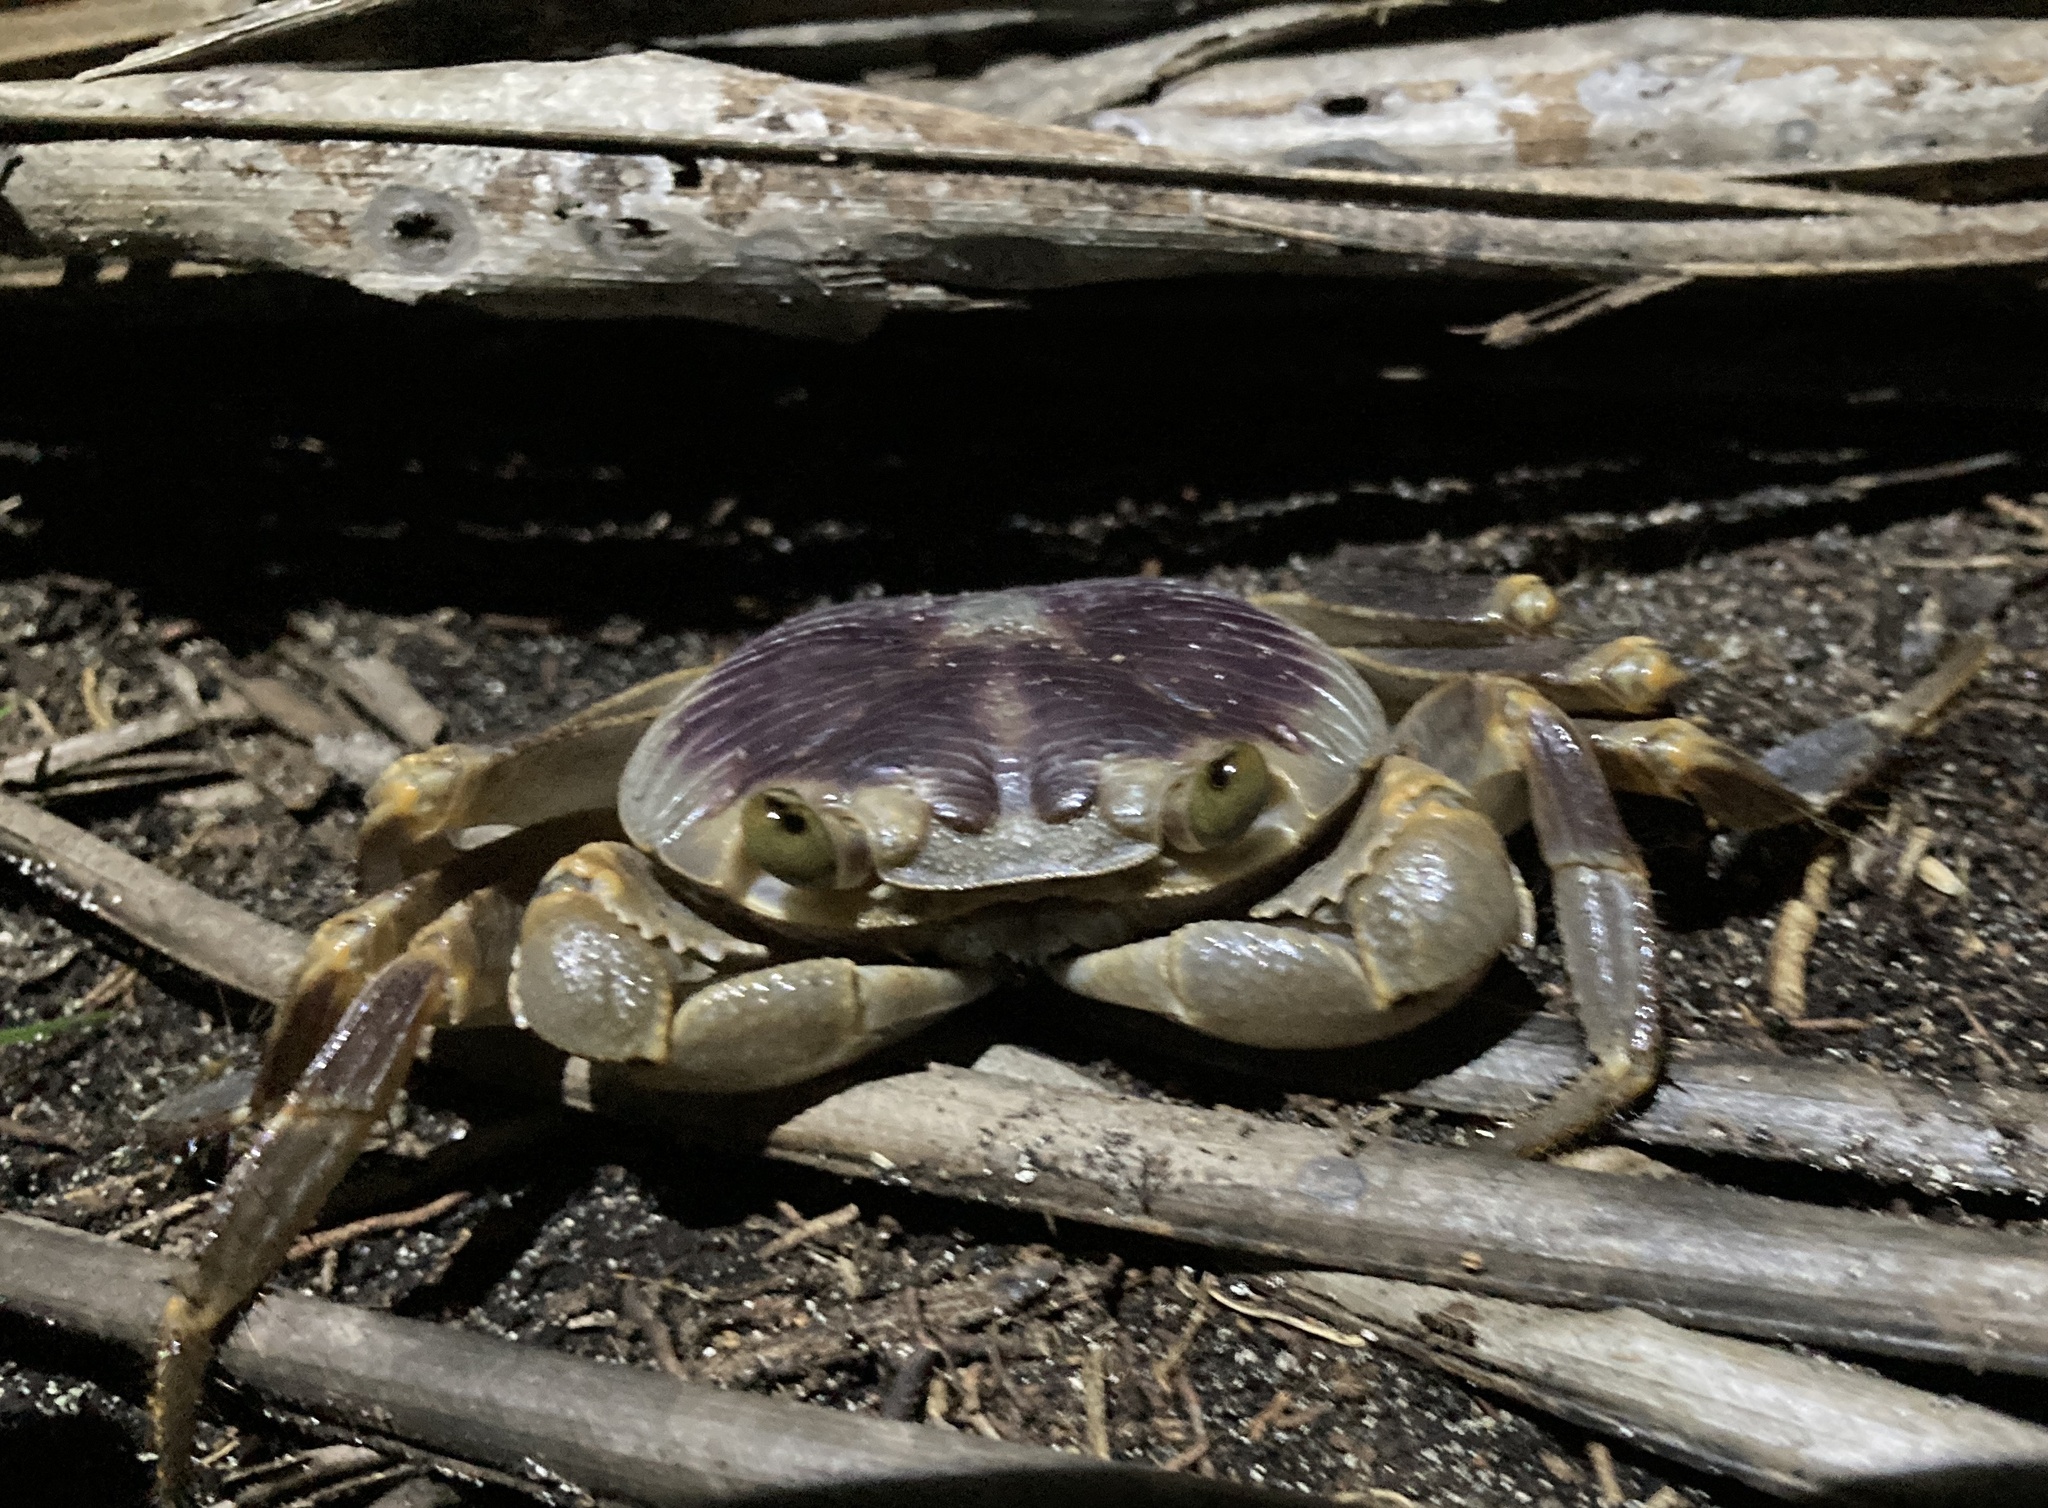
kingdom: Animalia
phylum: Arthropoda
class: Malacostraca
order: Decapoda
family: Grapsidae
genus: Geograpsus
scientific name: Geograpsus grayi
